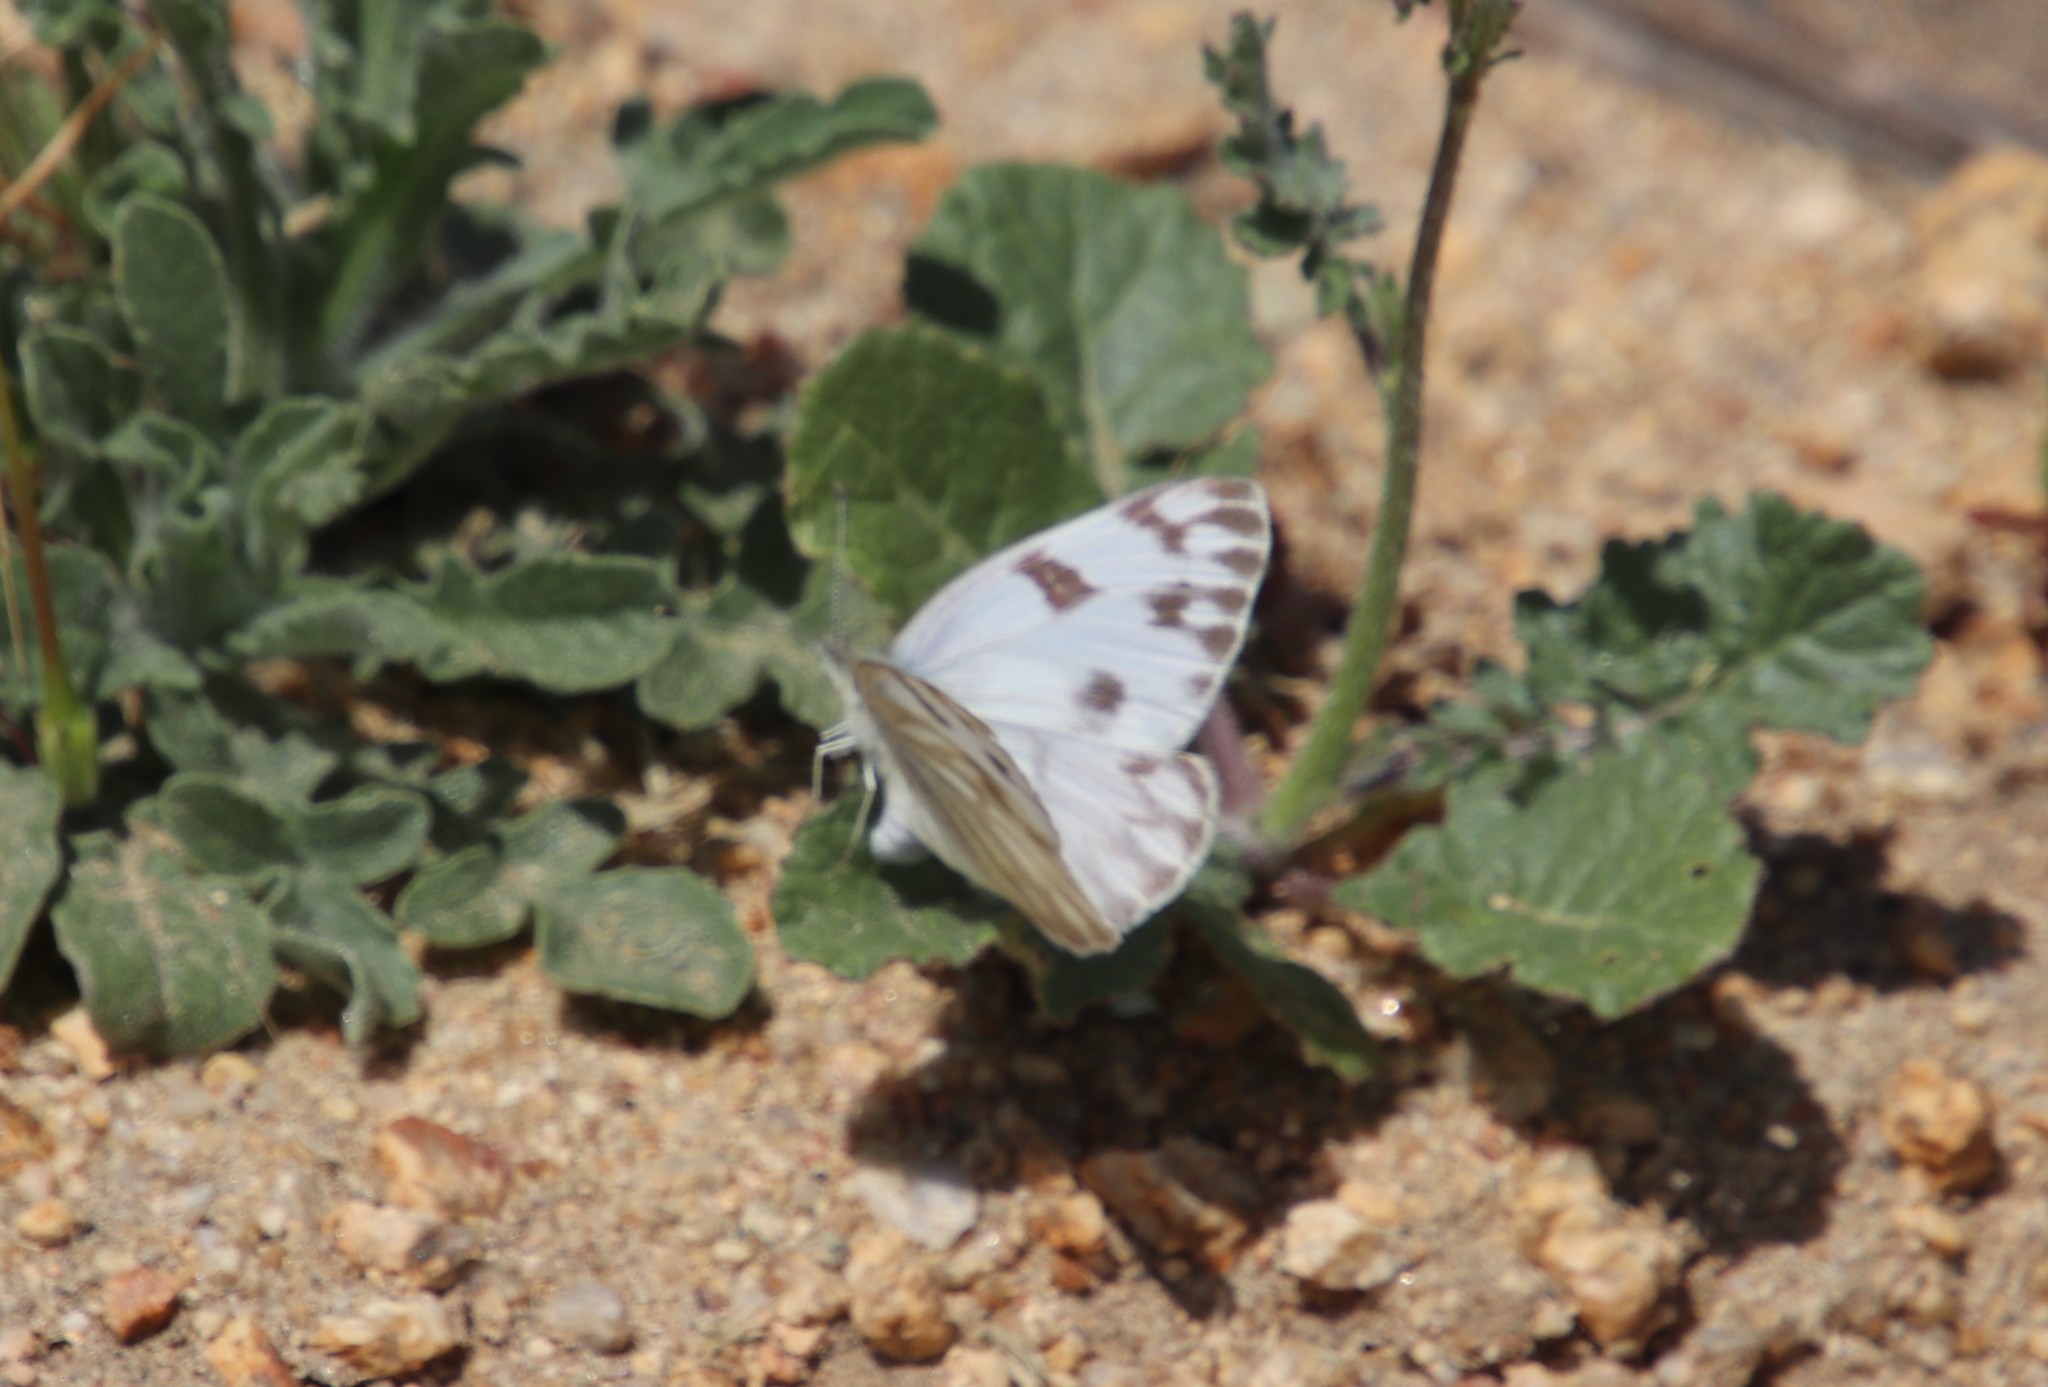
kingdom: Animalia
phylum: Arthropoda
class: Insecta
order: Lepidoptera
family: Pieridae
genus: Pontia
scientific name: Pontia protodice
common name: Checkered white
